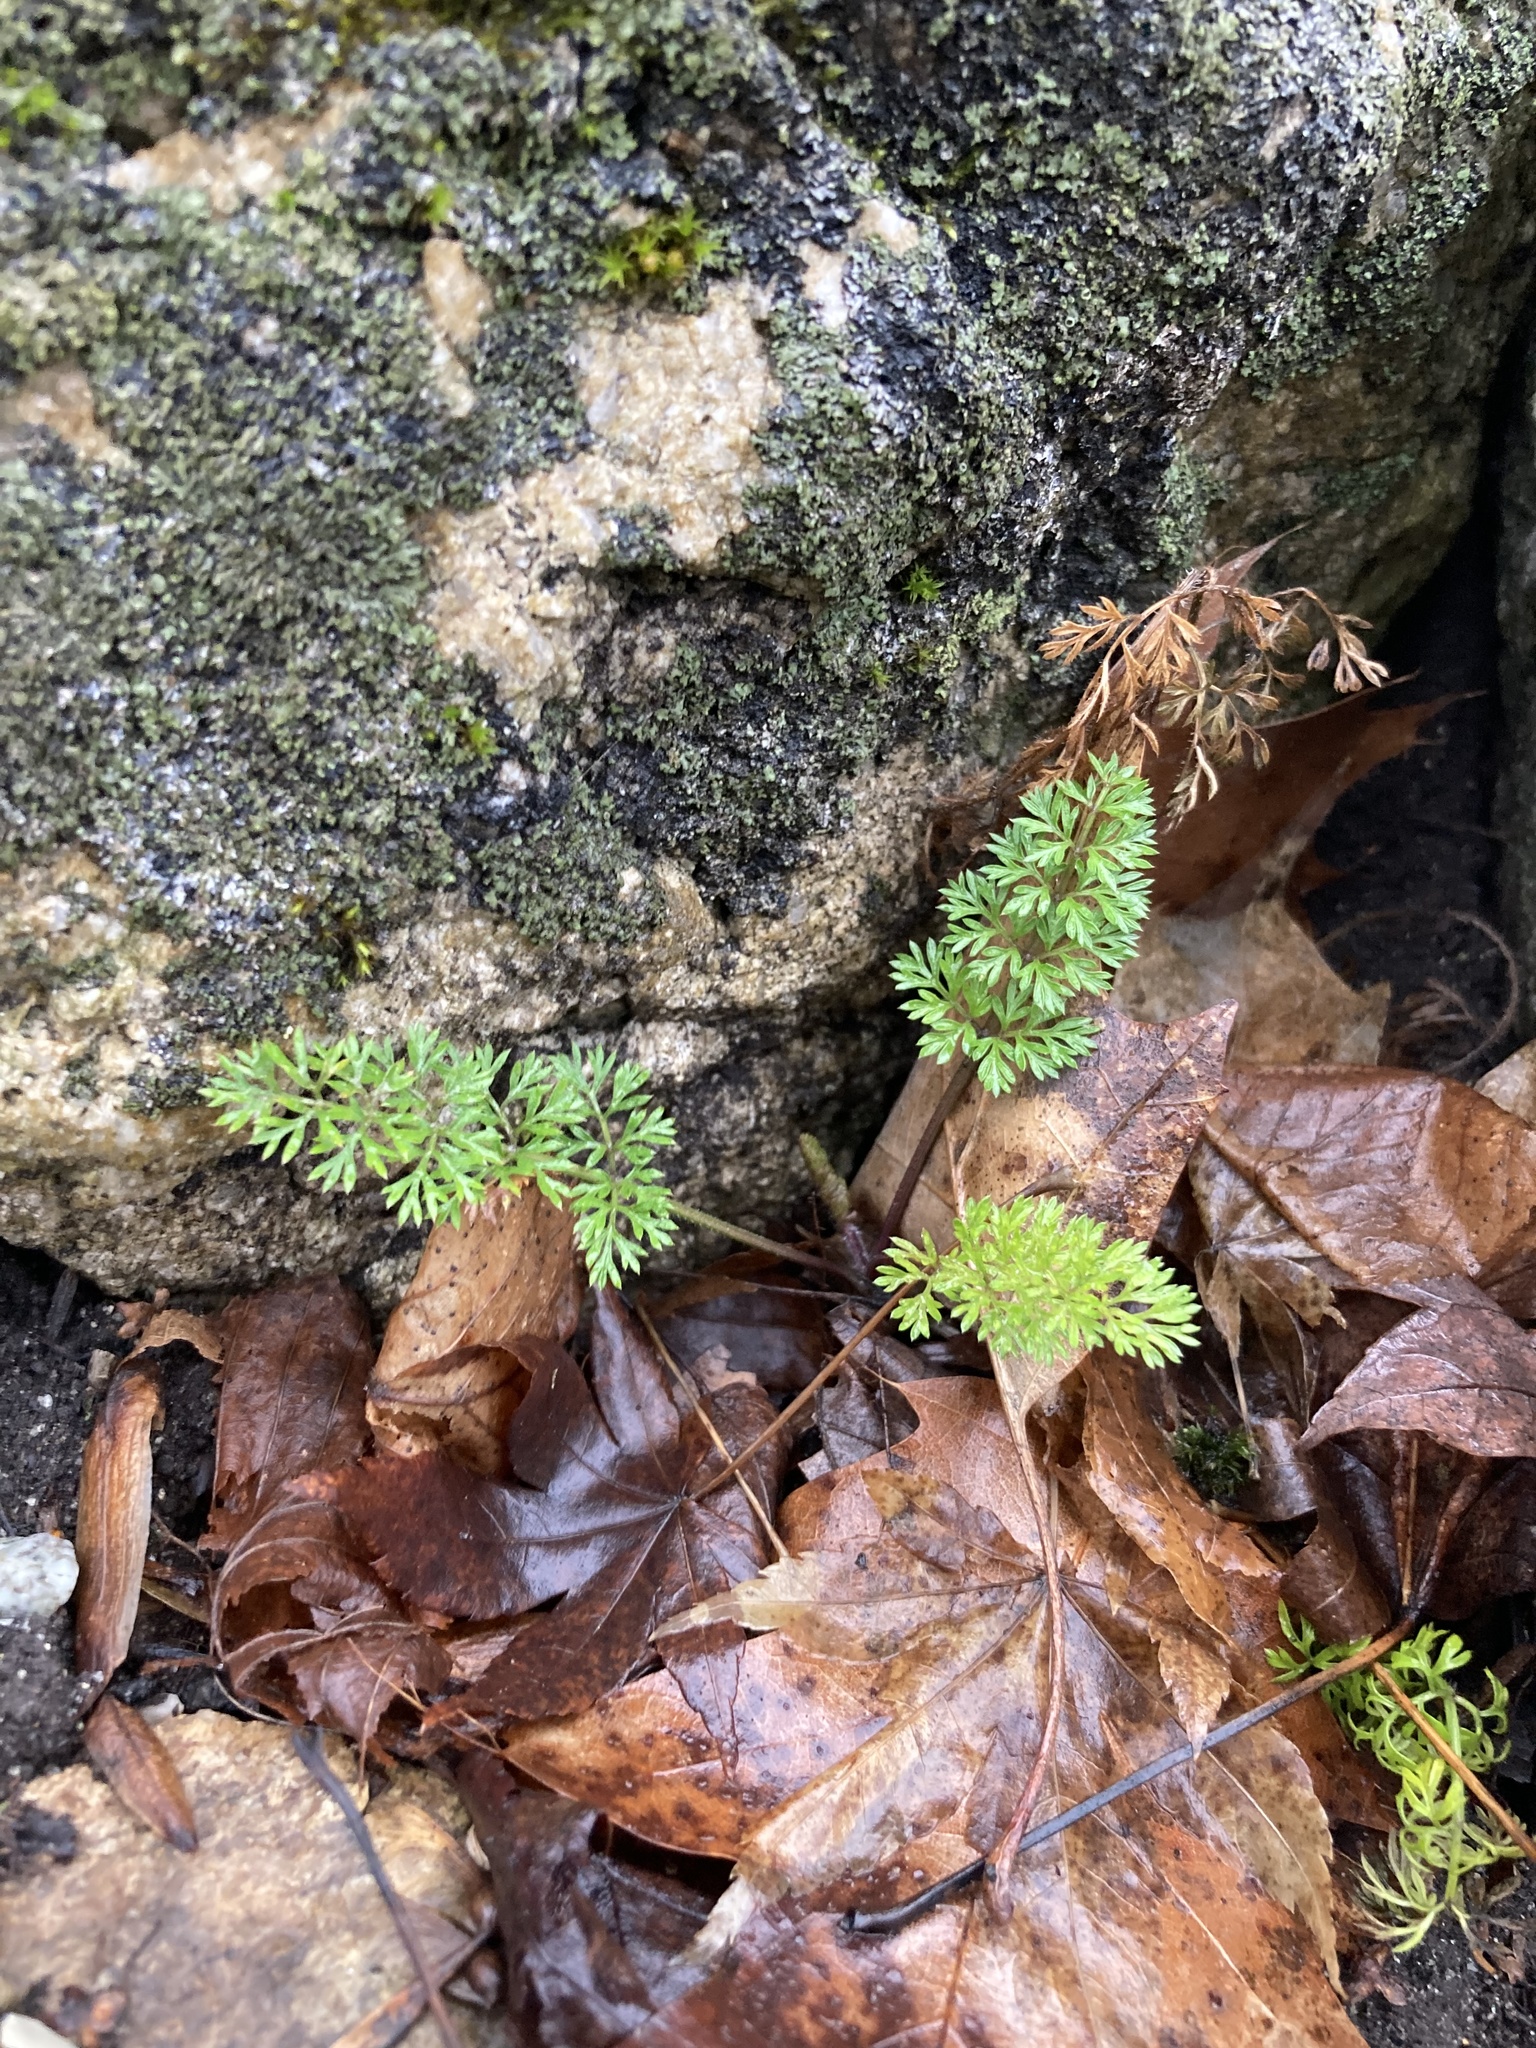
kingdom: Plantae
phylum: Tracheophyta
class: Magnoliopsida
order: Apiales
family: Apiaceae
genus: Daucus
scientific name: Daucus carota
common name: Wild carrot
